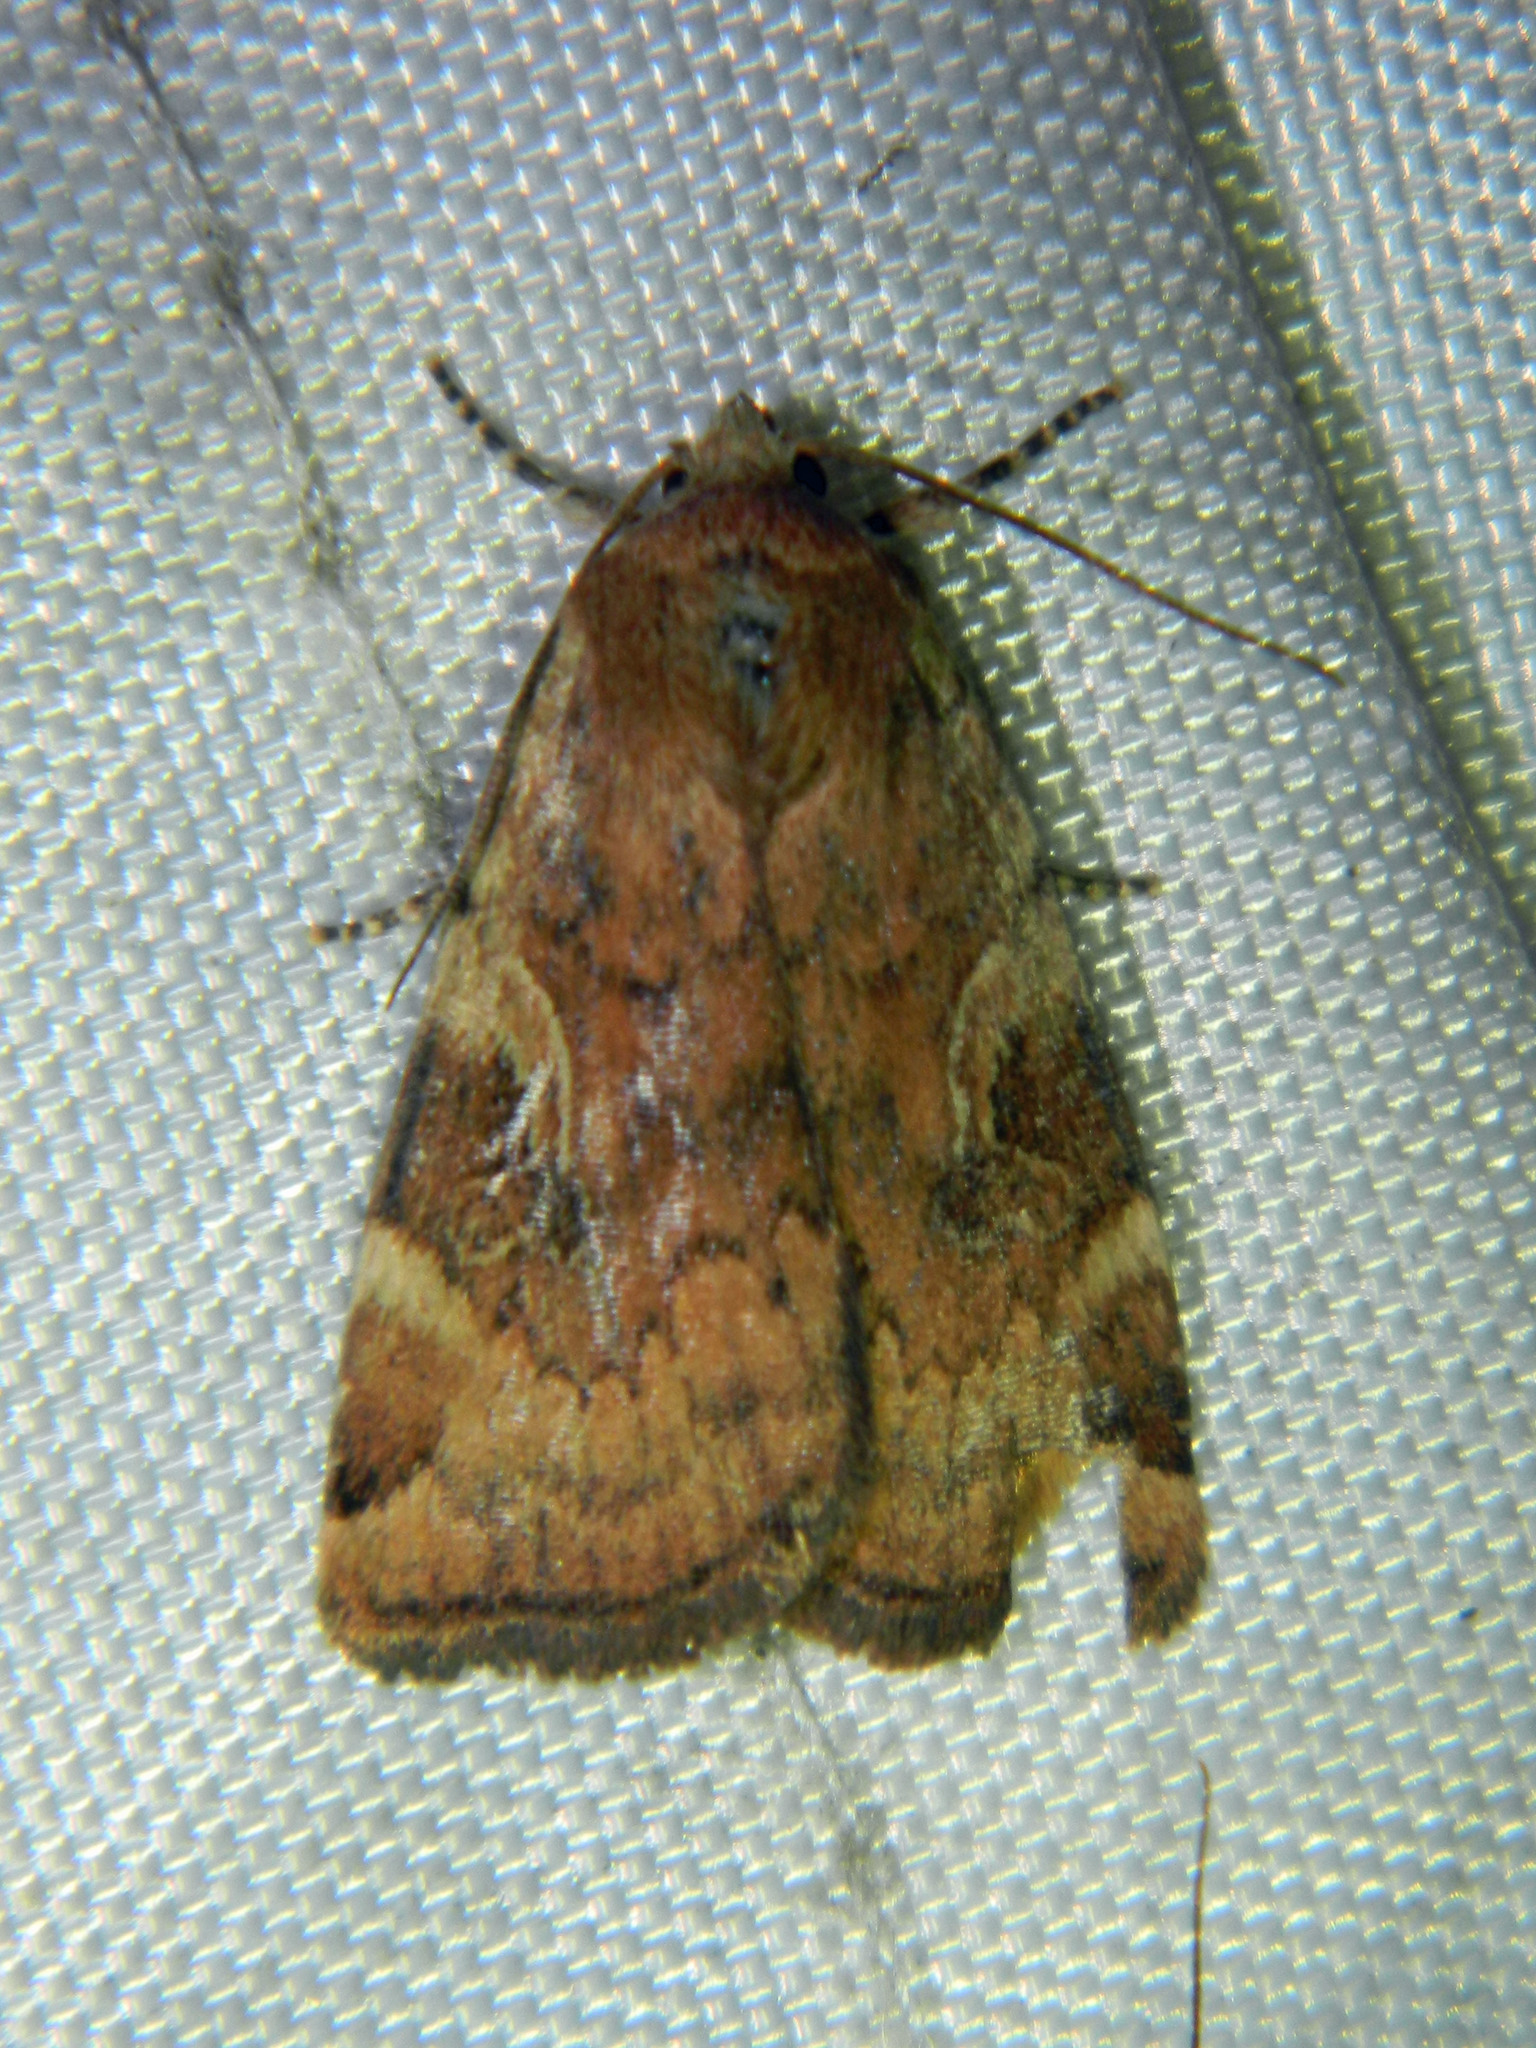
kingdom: Animalia
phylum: Arthropoda
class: Insecta
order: Lepidoptera
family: Noctuidae
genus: Cryptocala
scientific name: Cryptocala acadiensis
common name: Catocaline dart
